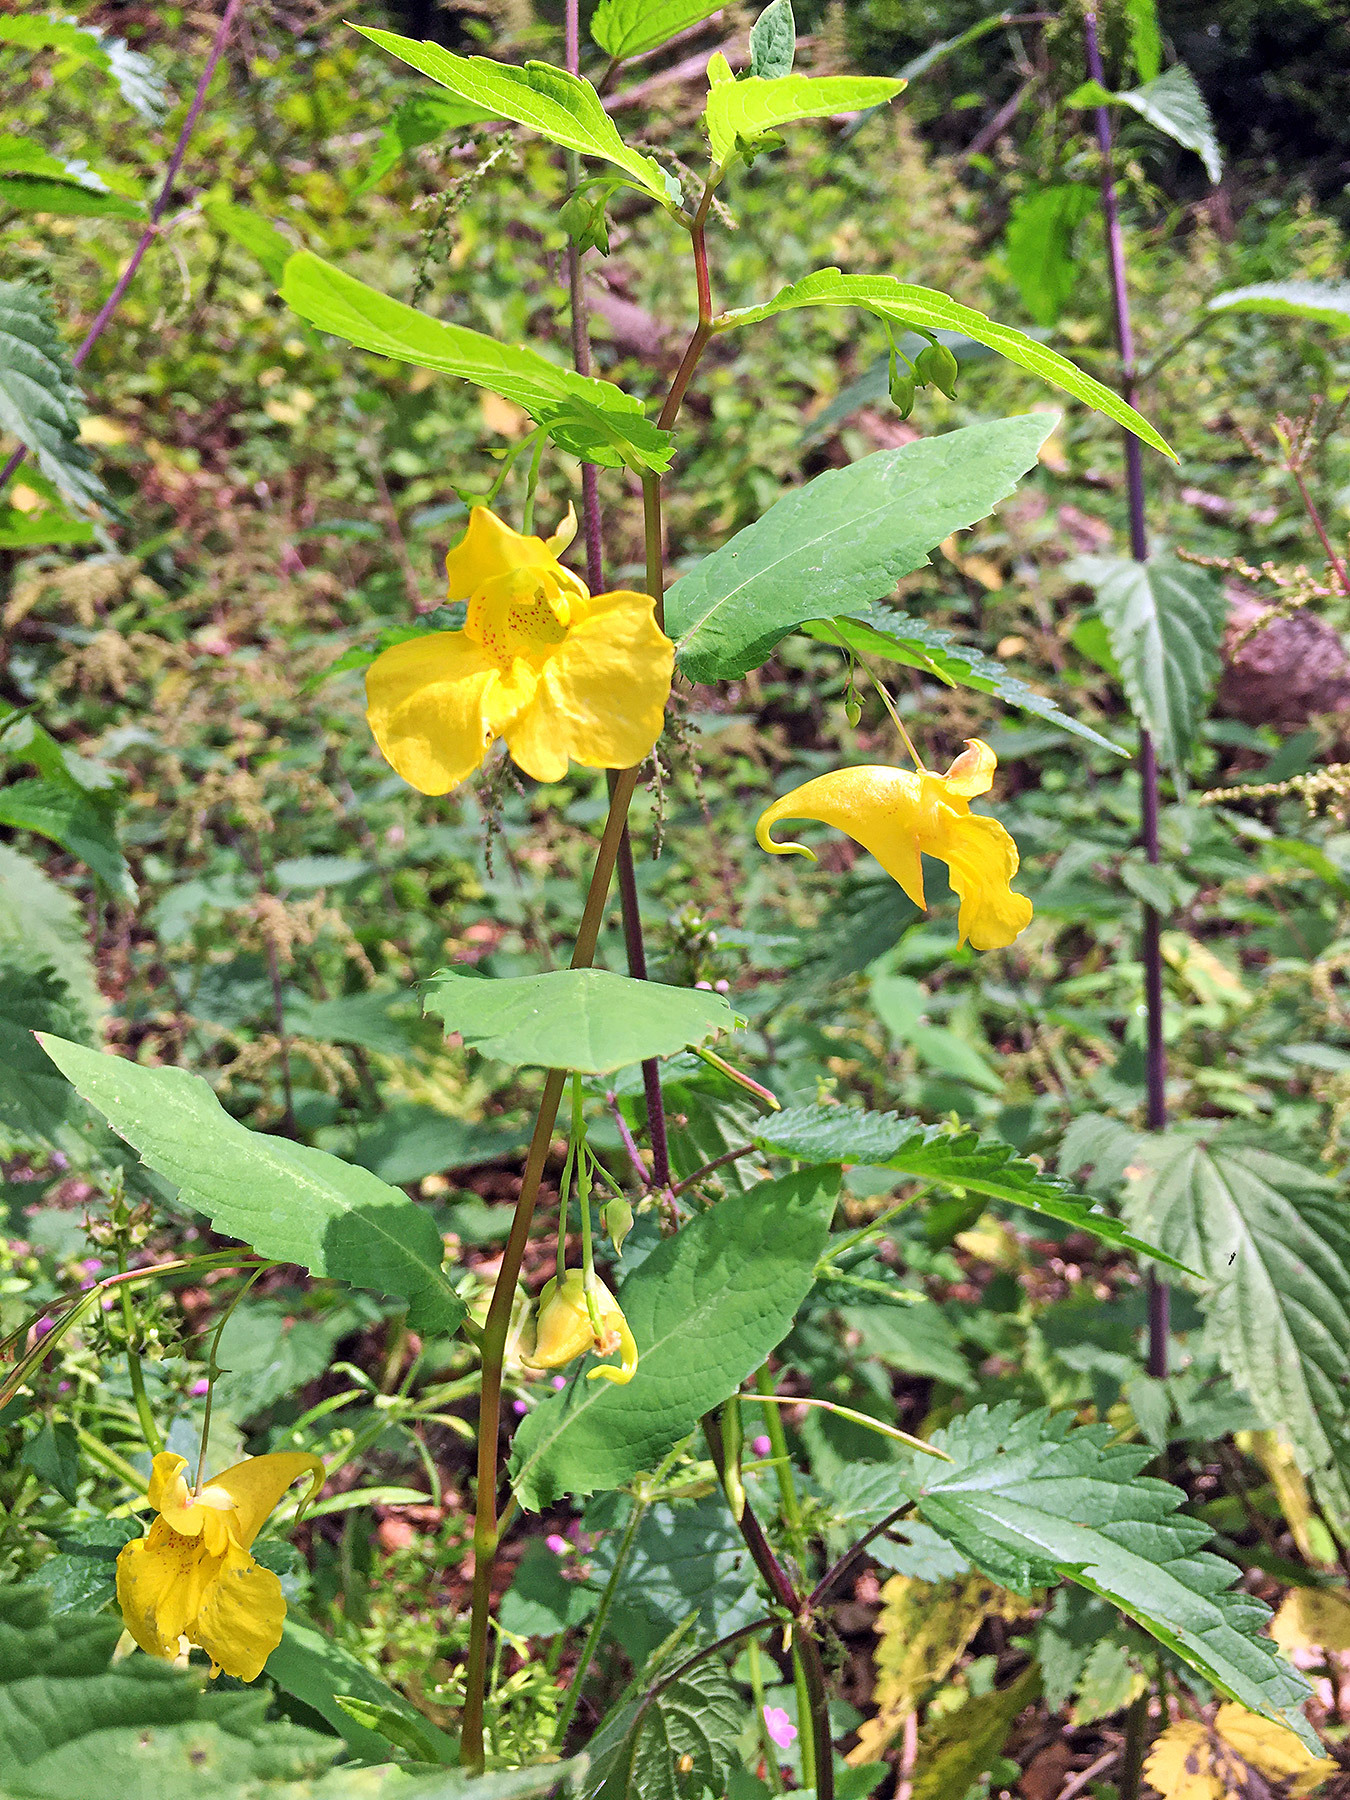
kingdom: Plantae
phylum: Tracheophyta
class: Magnoliopsida
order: Ericales
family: Balsaminaceae
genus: Impatiens
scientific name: Impatiens noli-tangere
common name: Touch-me-not balsam
